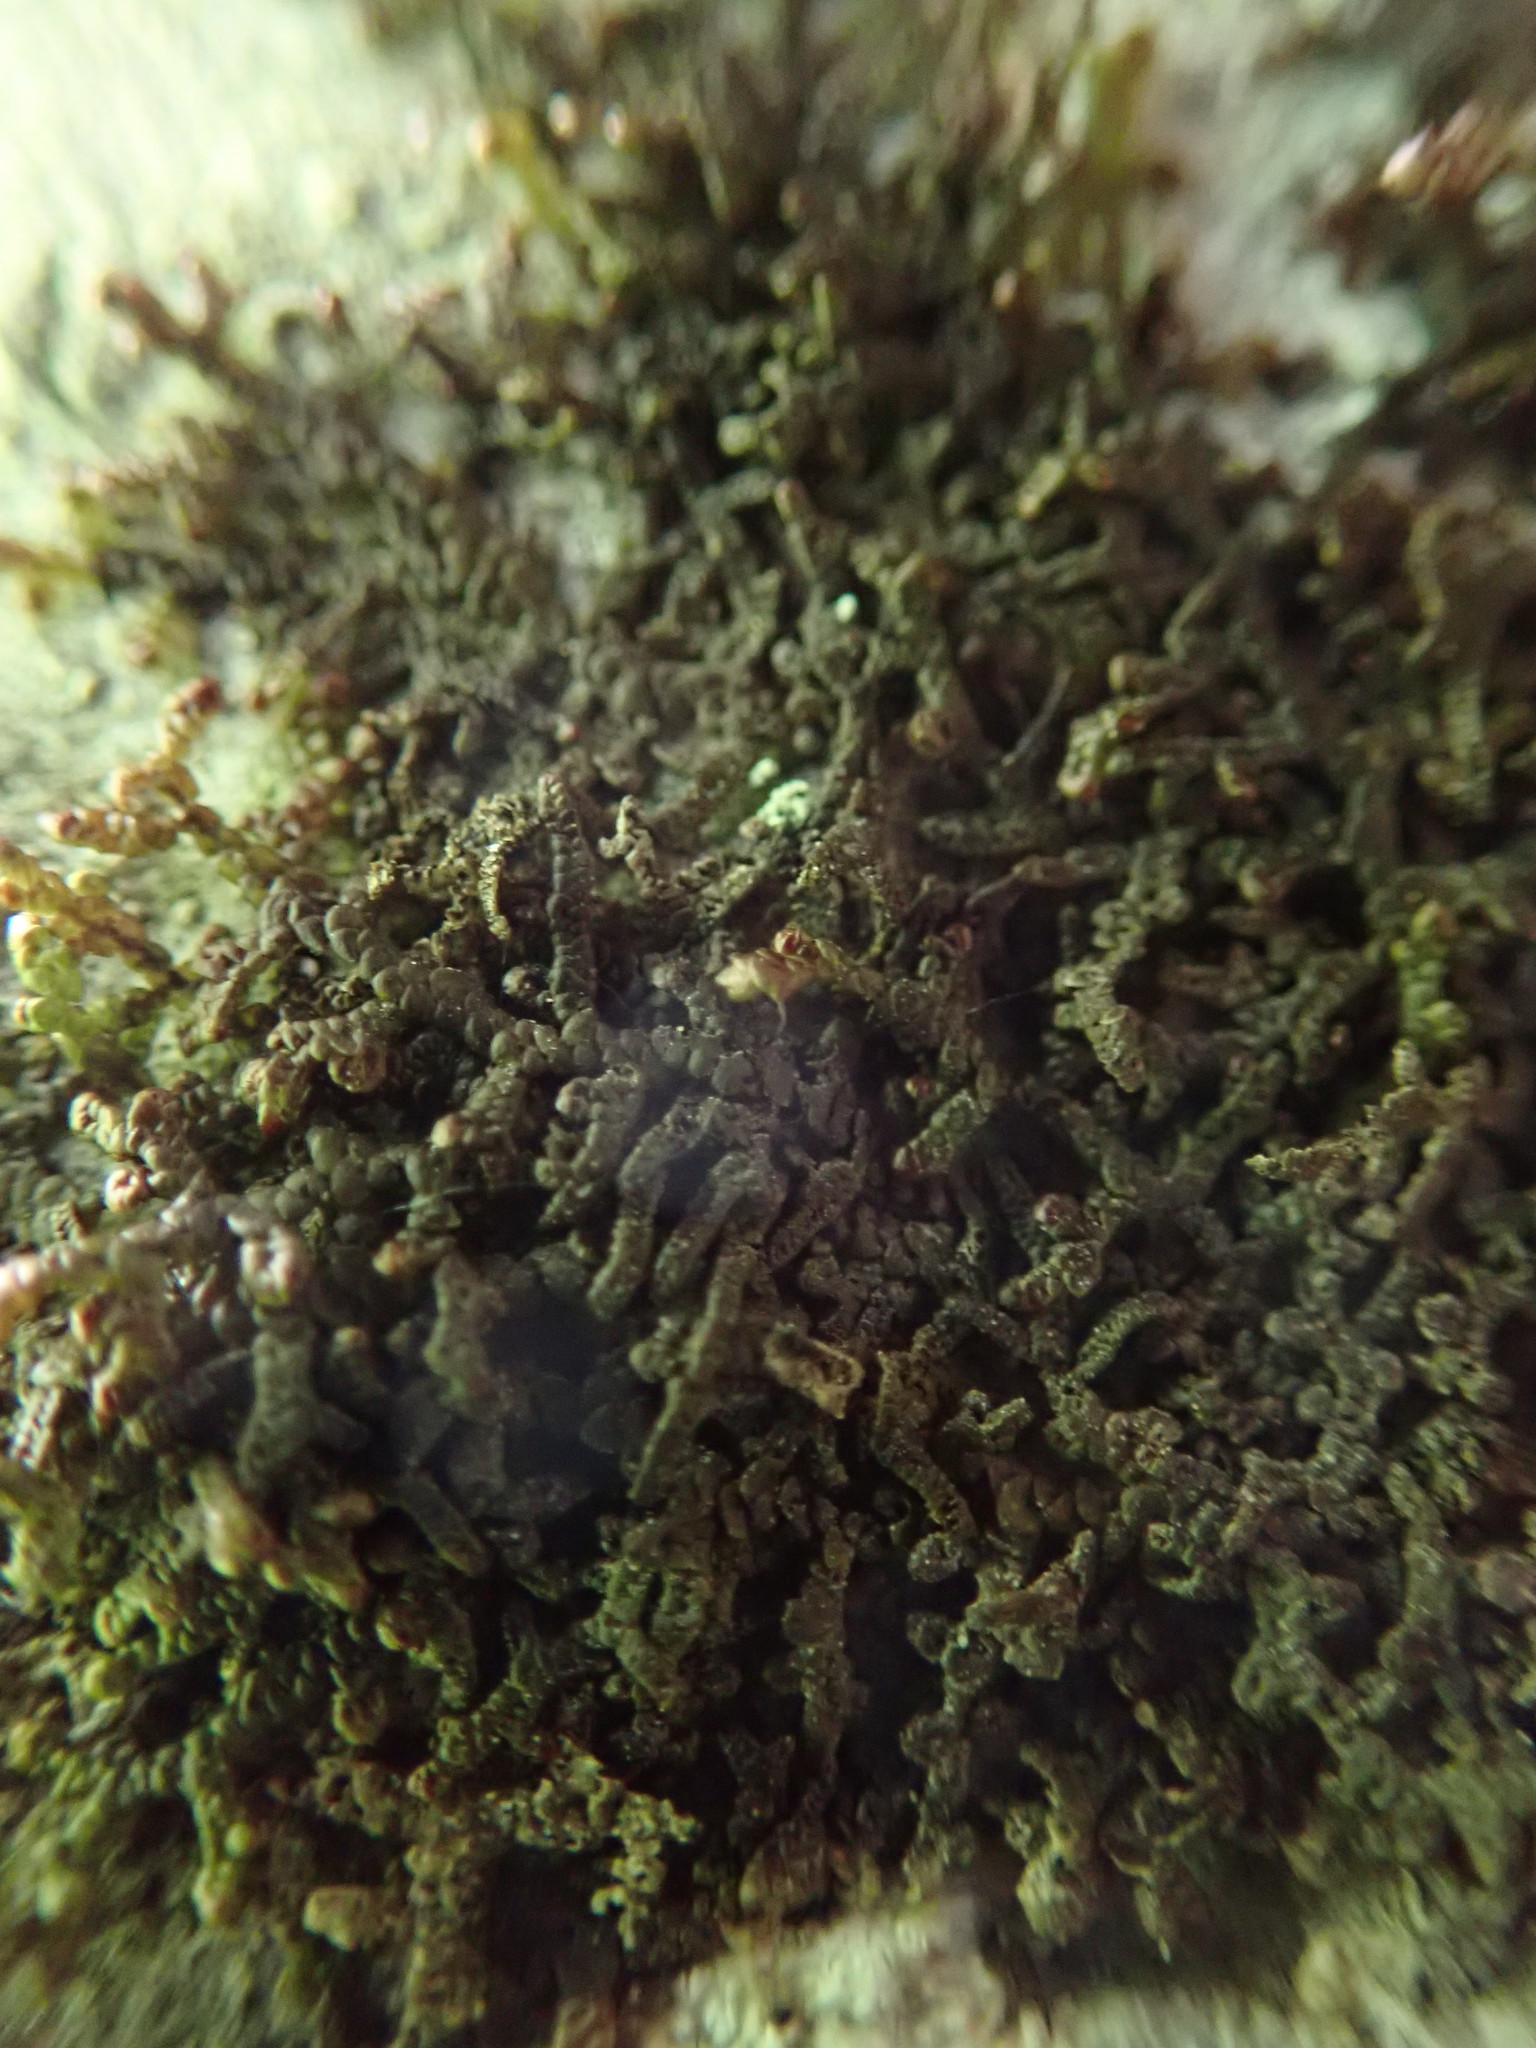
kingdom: Plantae
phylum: Marchantiophyta
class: Jungermanniopsida
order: Porellales
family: Frullaniaceae
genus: Frullania
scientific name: Frullania nisquallensis
